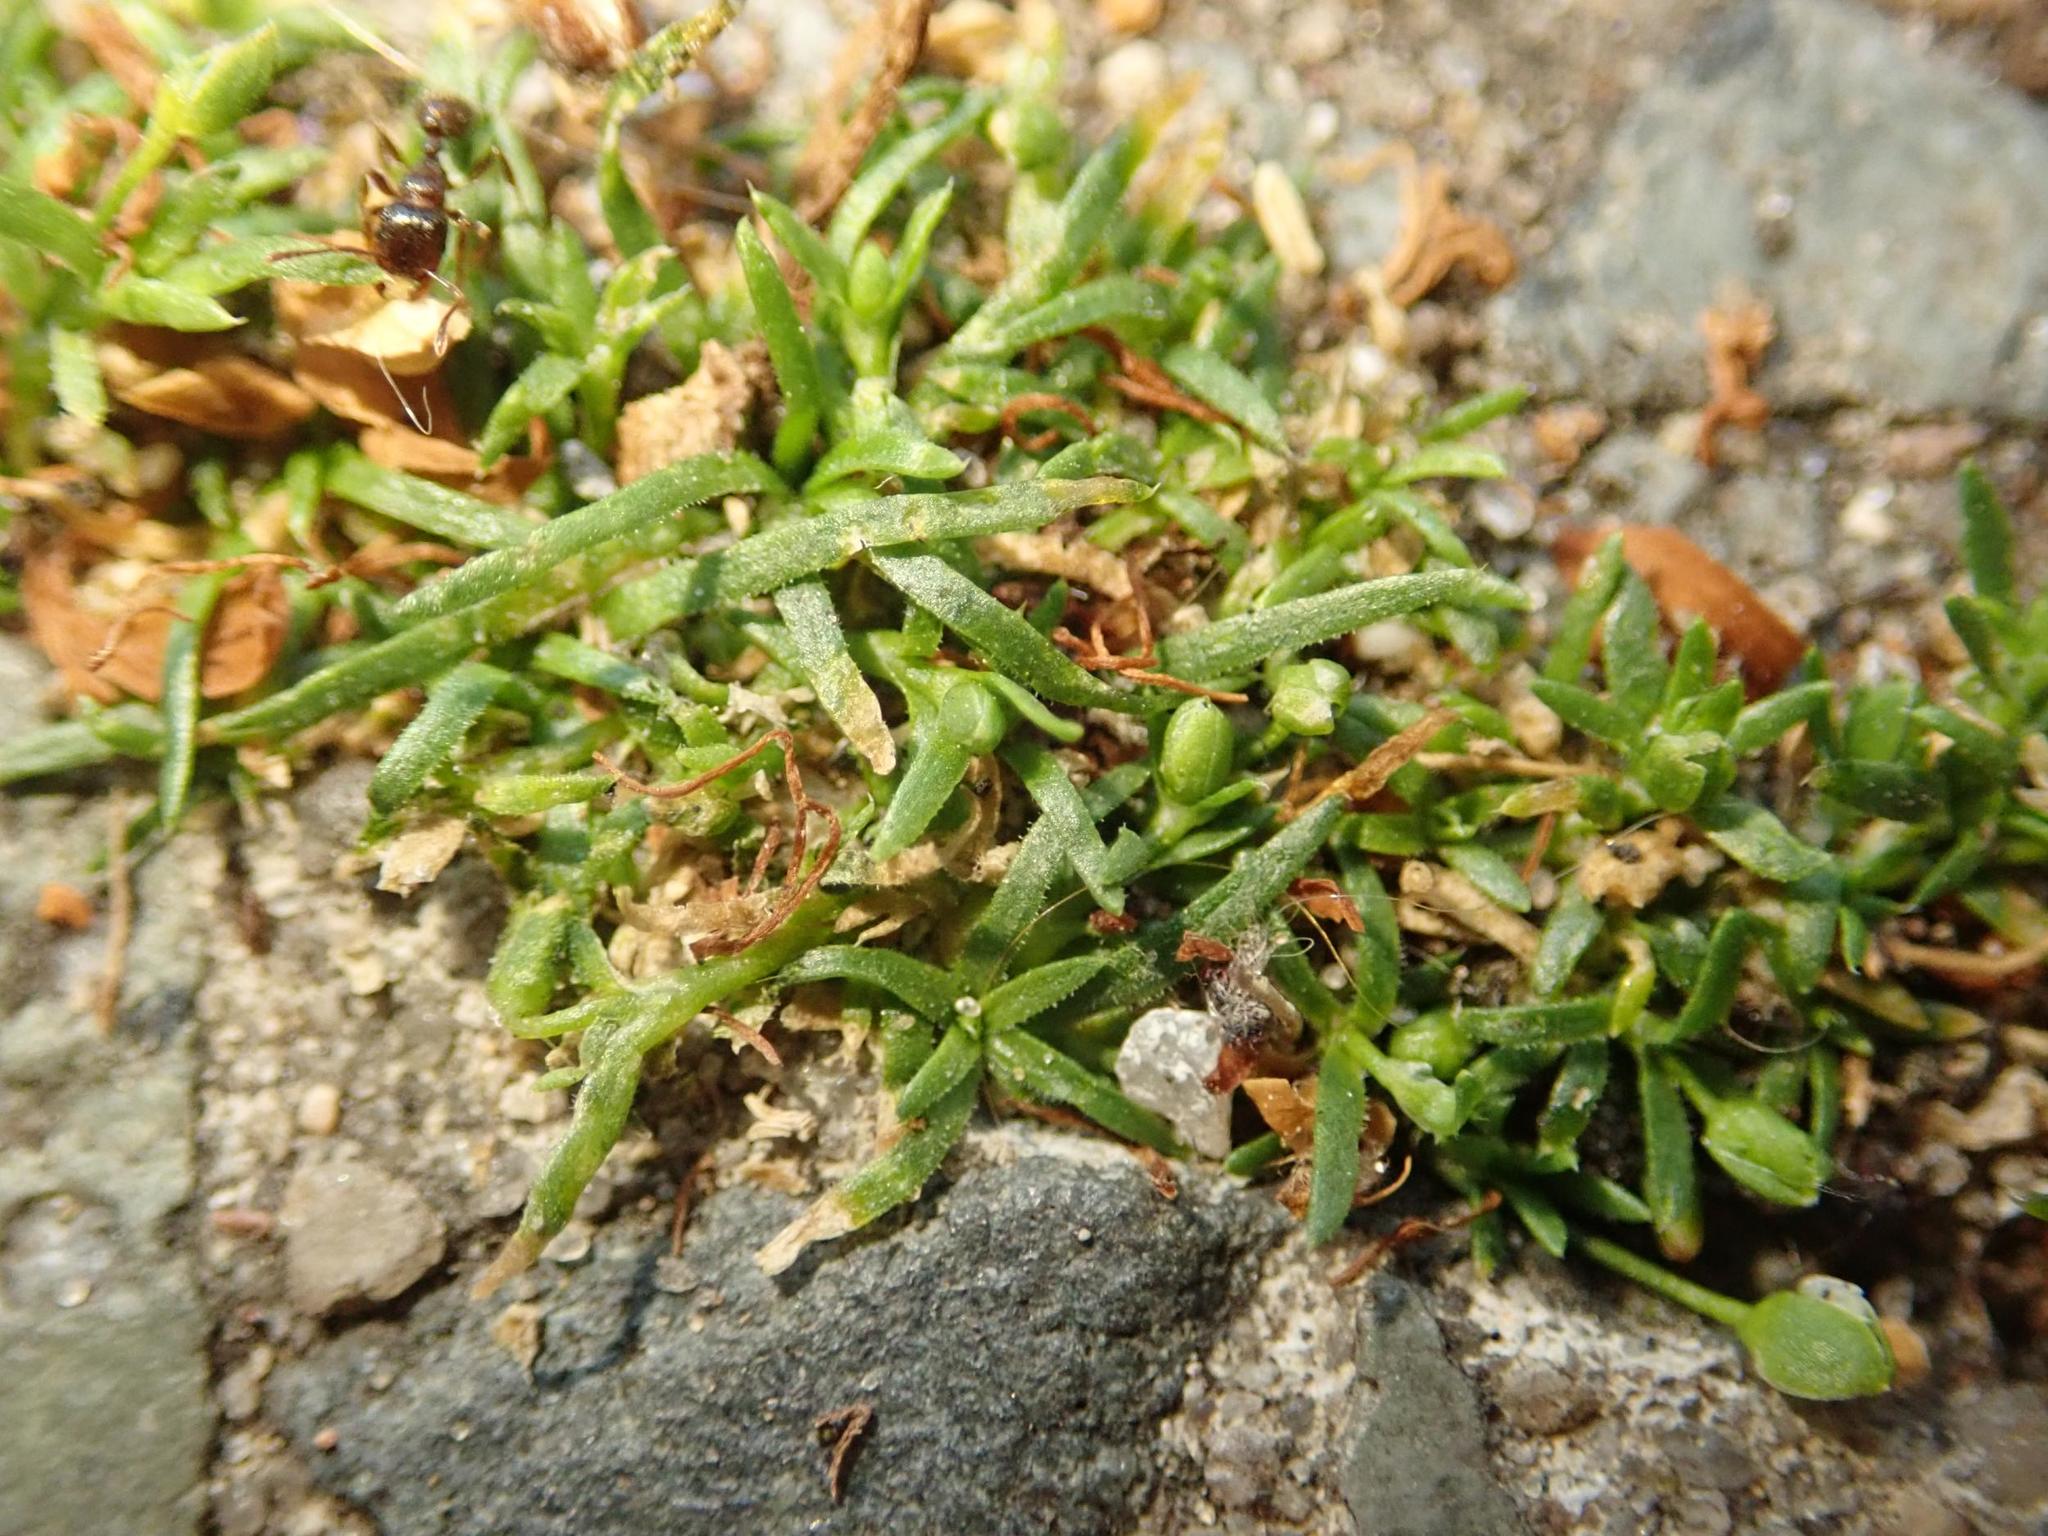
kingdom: Plantae
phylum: Tracheophyta
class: Magnoliopsida
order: Caryophyllales
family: Caryophyllaceae
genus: Sagina
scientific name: Sagina procumbens
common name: Procumbent pearlwort
